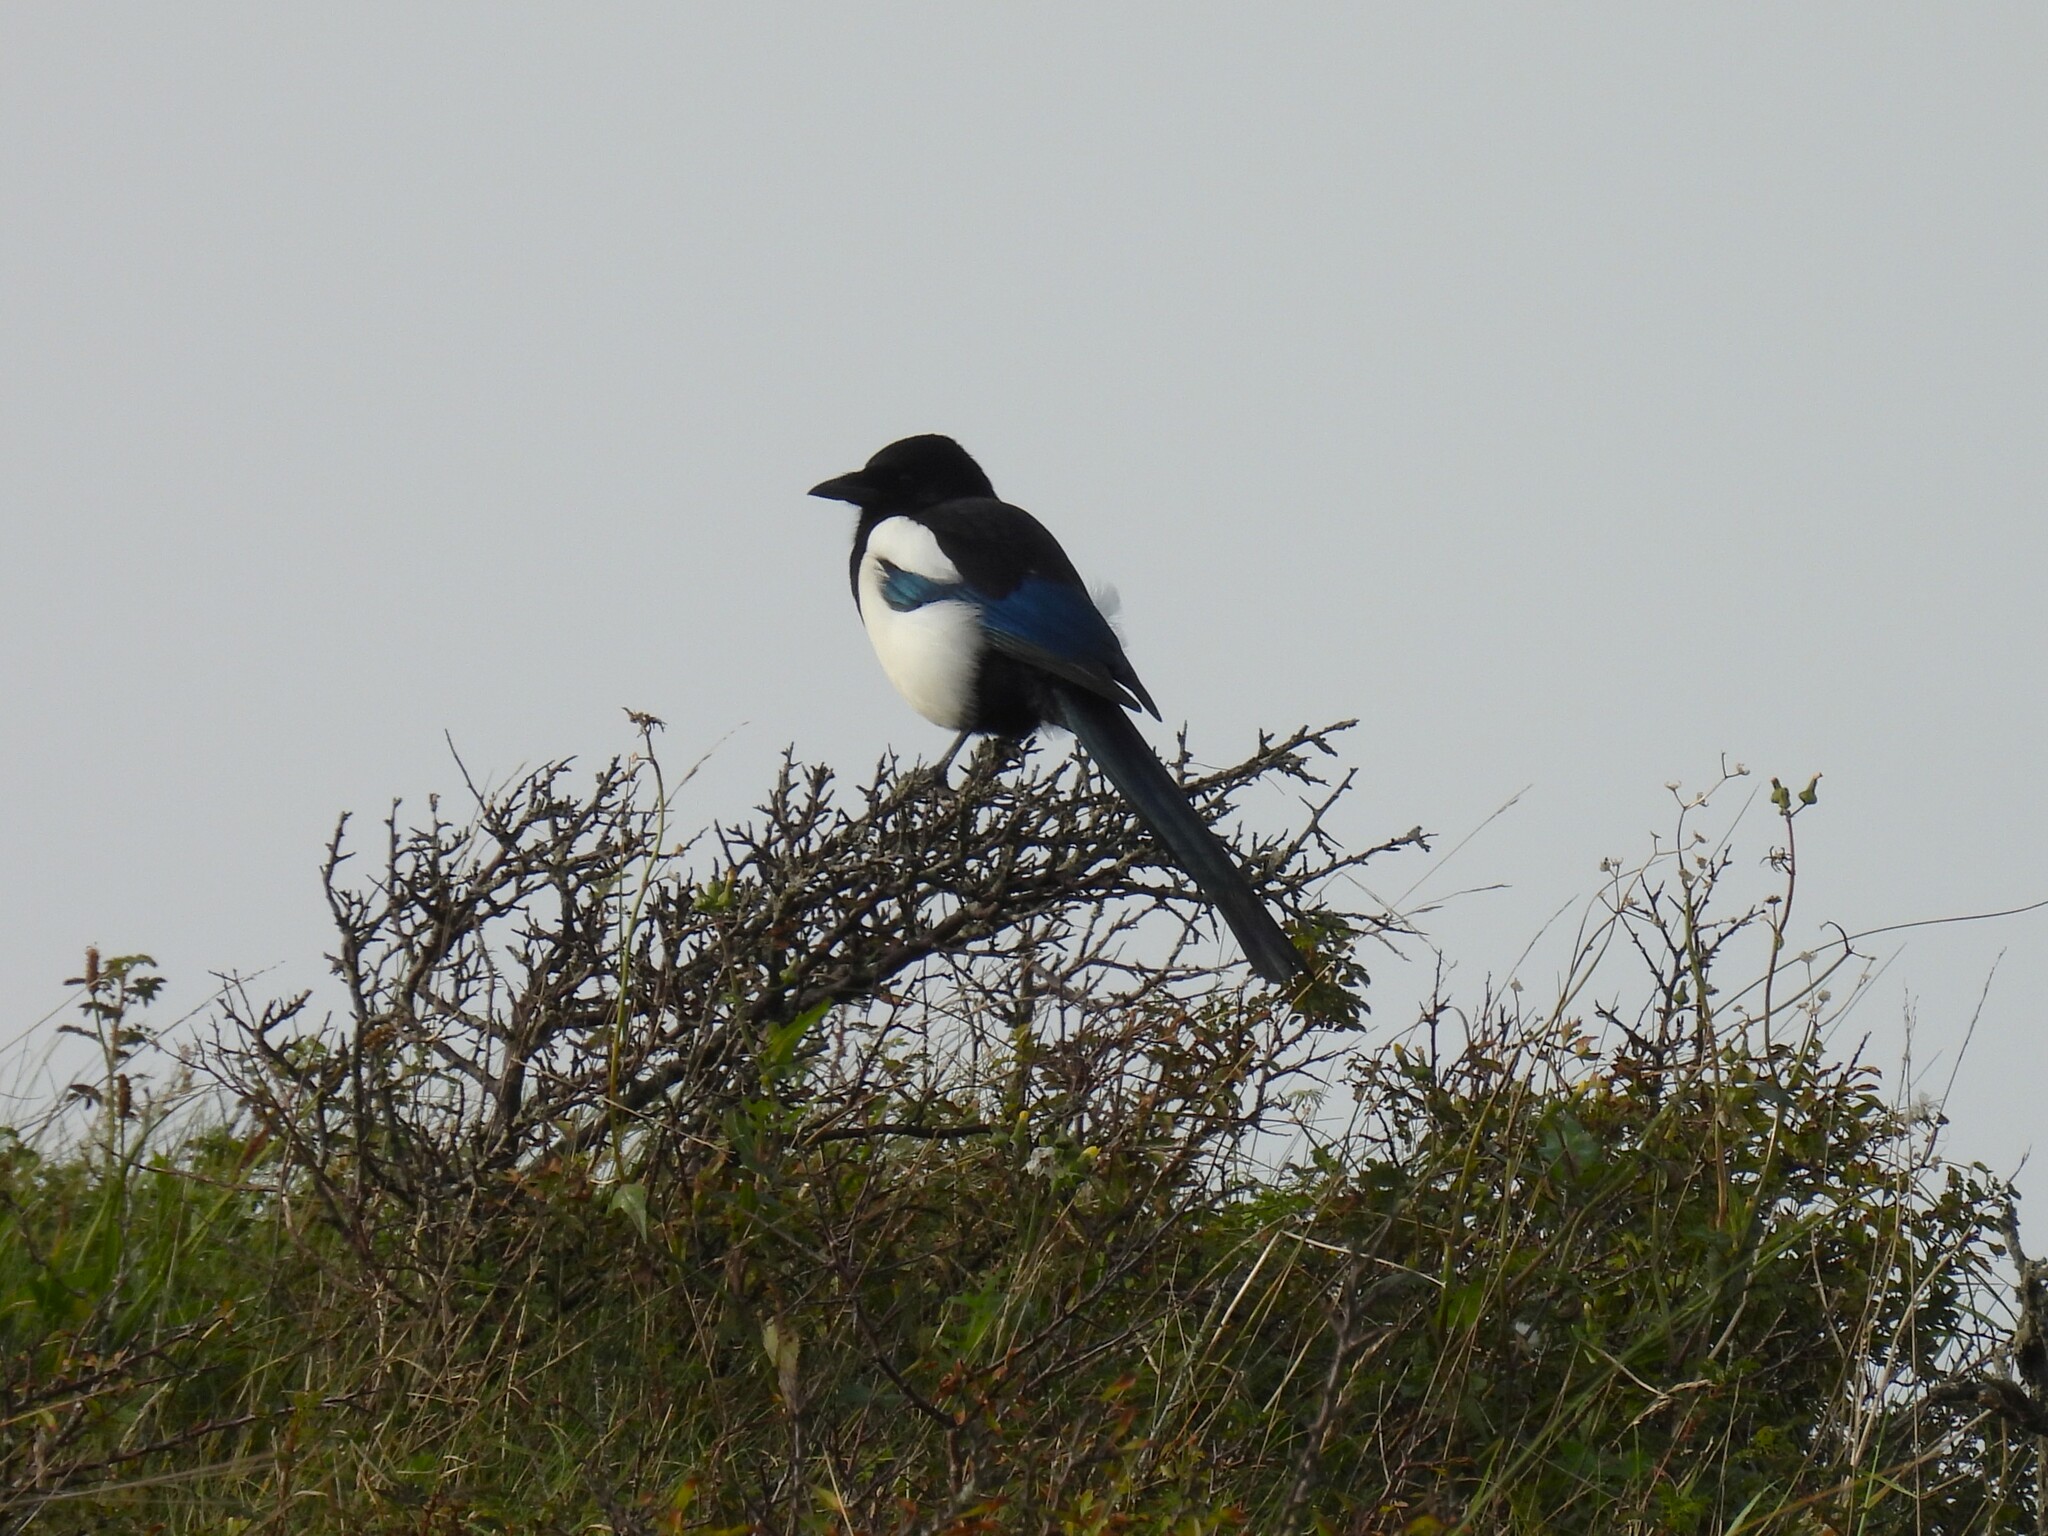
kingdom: Animalia
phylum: Chordata
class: Aves
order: Passeriformes
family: Corvidae
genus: Pica
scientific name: Pica pica
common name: Eurasian magpie
